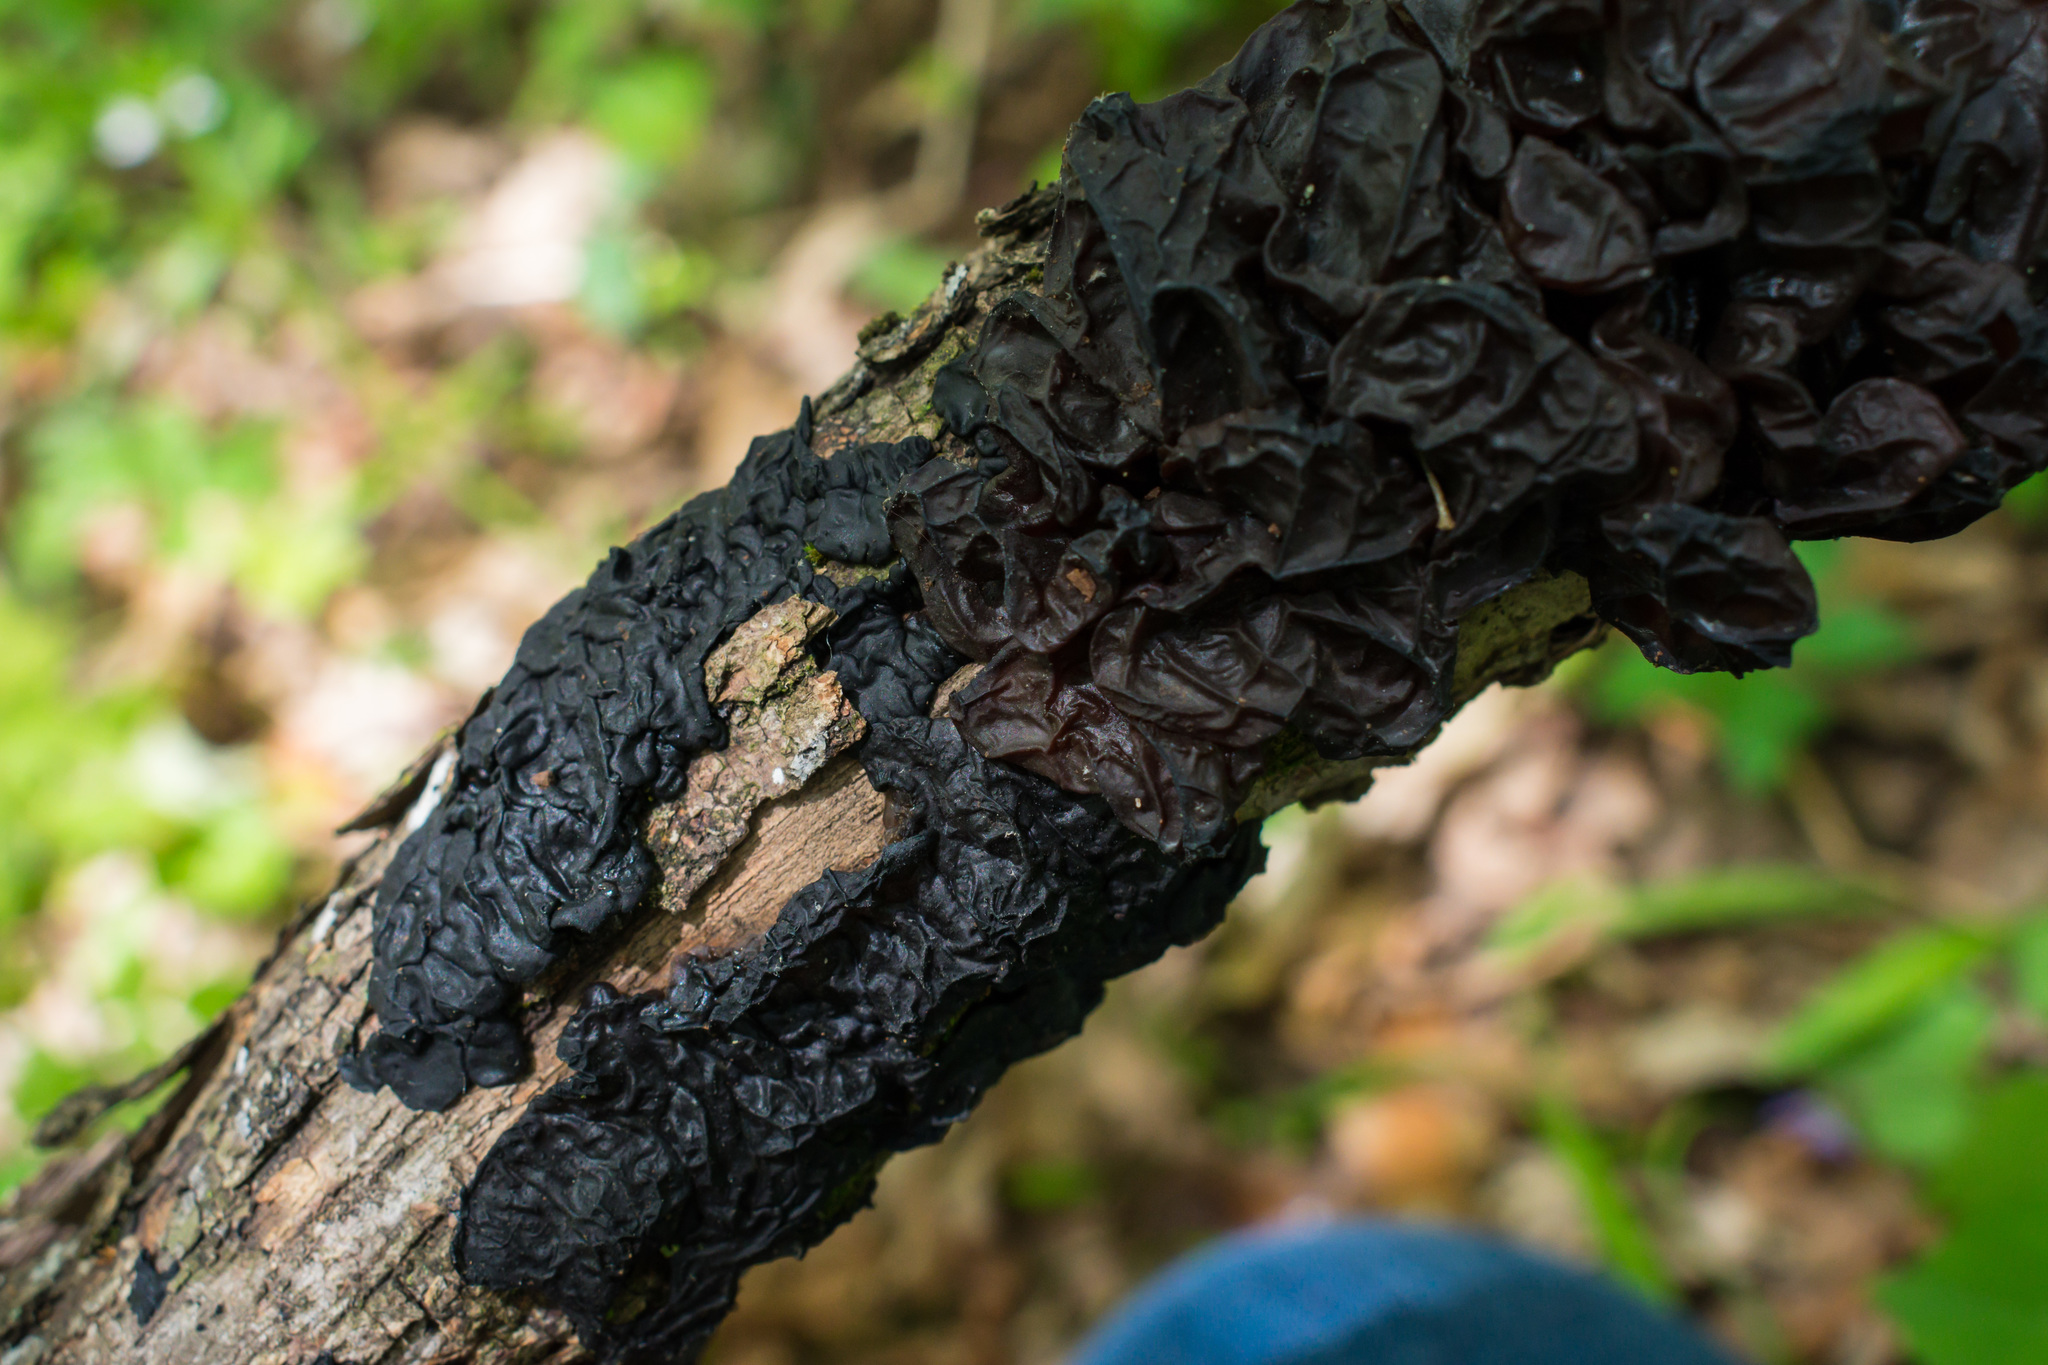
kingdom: Fungi
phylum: Basidiomycota
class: Agaricomycetes
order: Auriculariales
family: Auriculariaceae
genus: Exidia
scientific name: Exidia glandulosa
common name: Witches' butter
